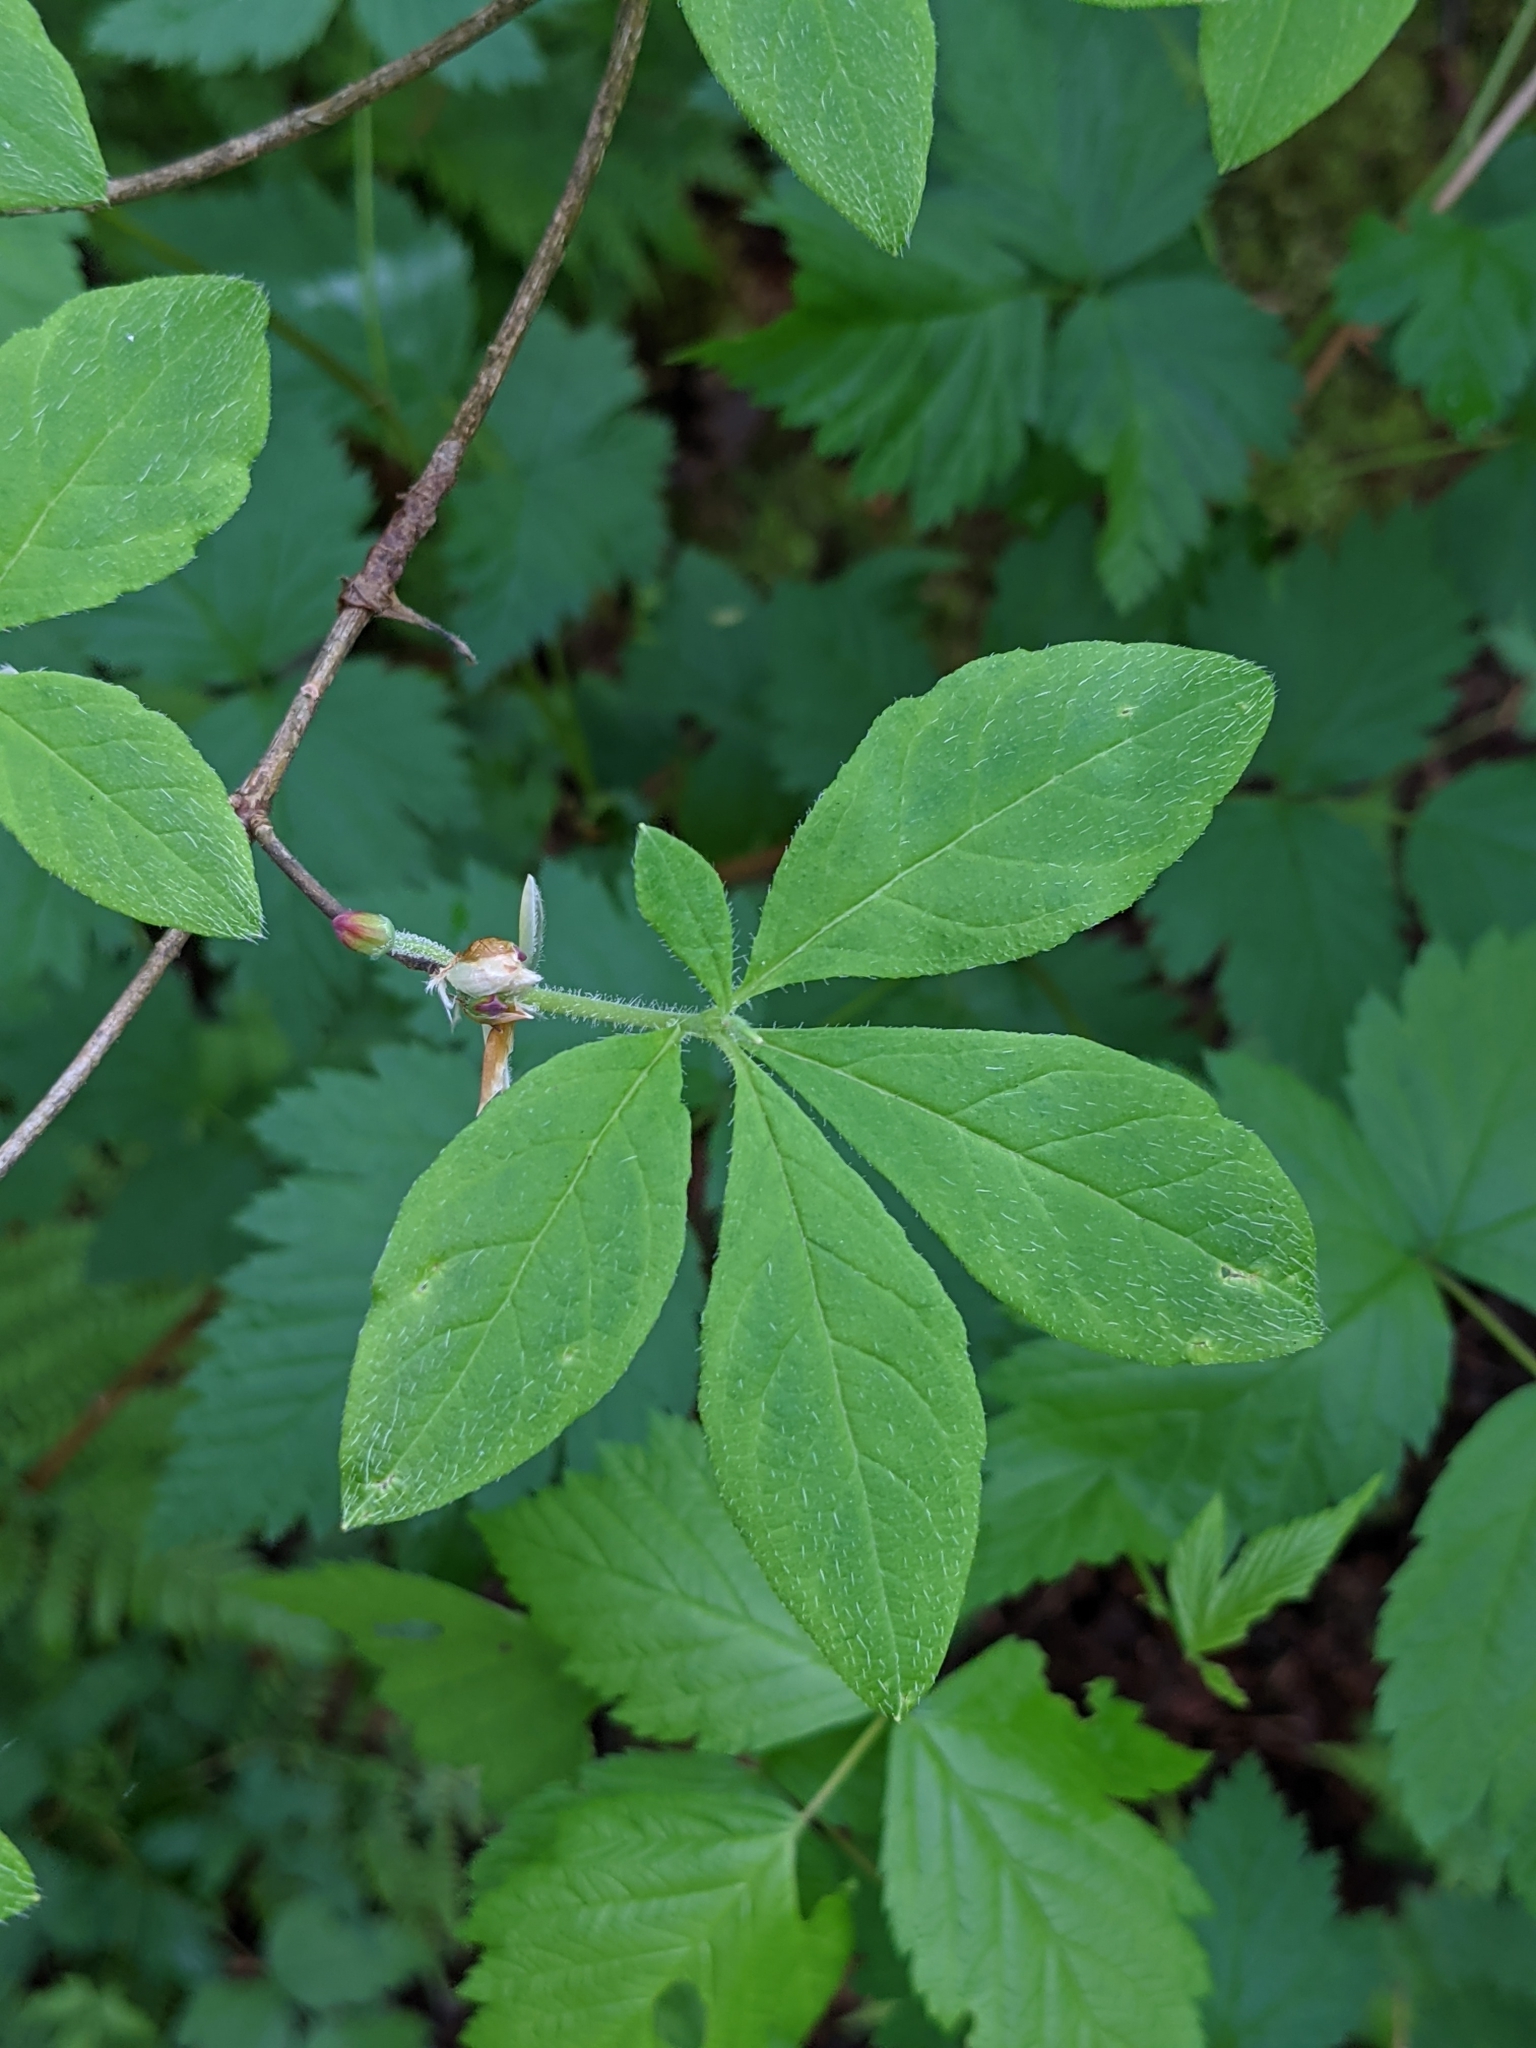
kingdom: Plantae
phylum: Tracheophyta
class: Magnoliopsida
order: Ericales
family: Ericaceae
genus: Rhododendron
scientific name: Rhododendron menziesii
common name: Pacific menziesia
